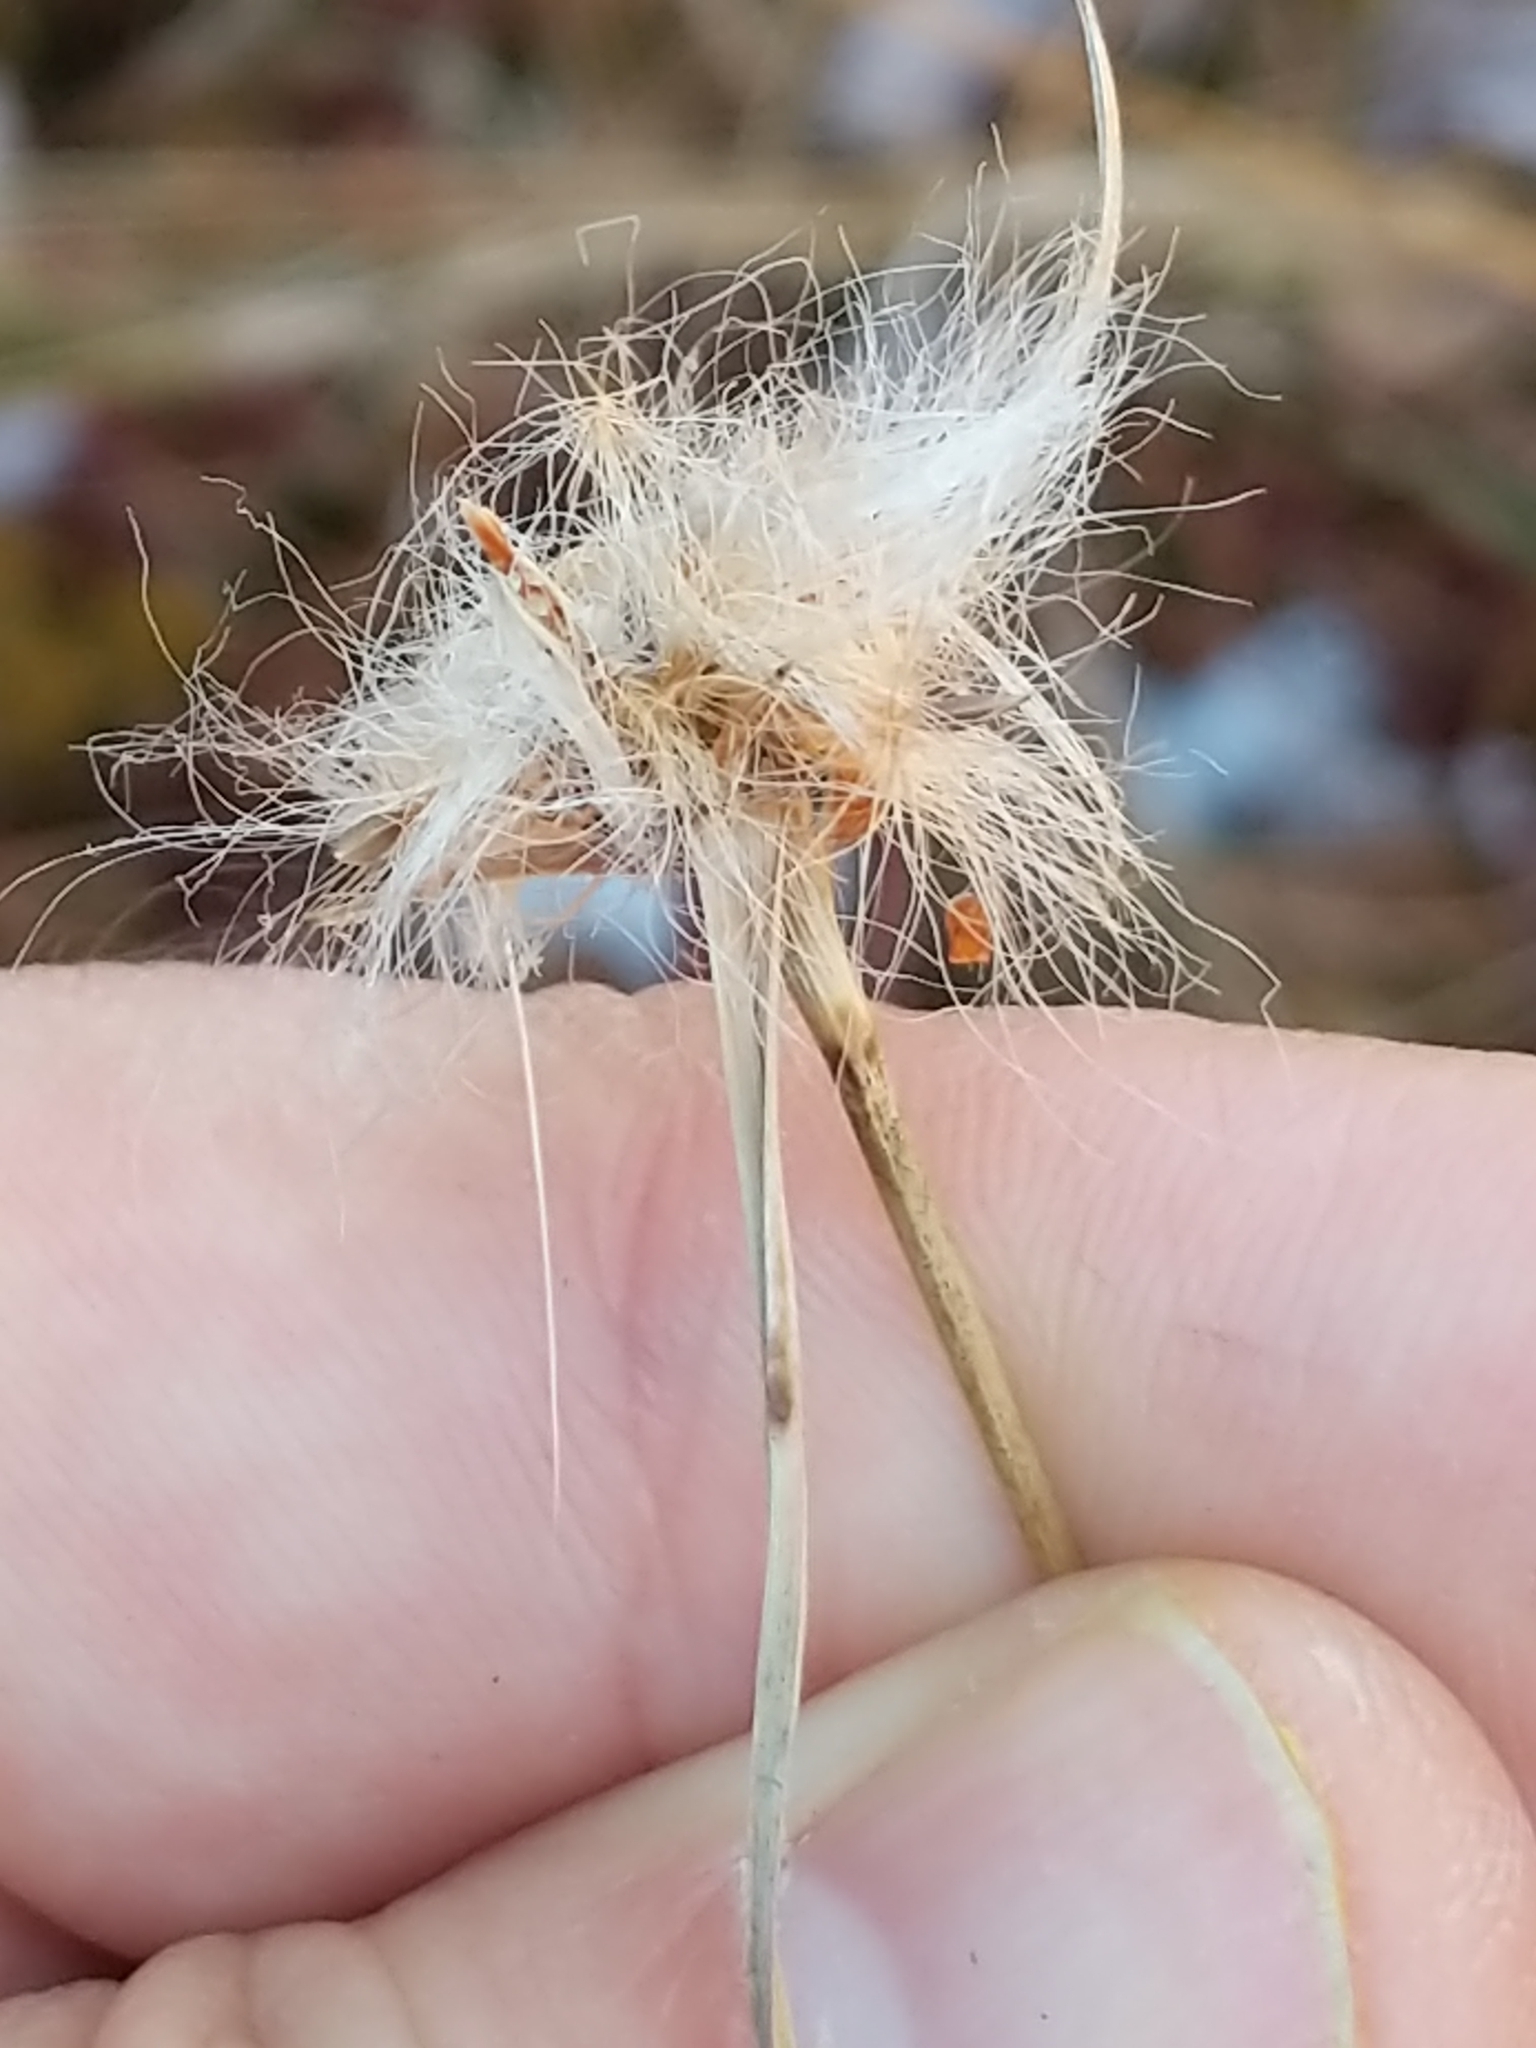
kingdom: Plantae
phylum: Tracheophyta
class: Liliopsida
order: Poales
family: Cyperaceae
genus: Eriophorum
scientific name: Eriophorum virginicum
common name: Tawny cottongrass
